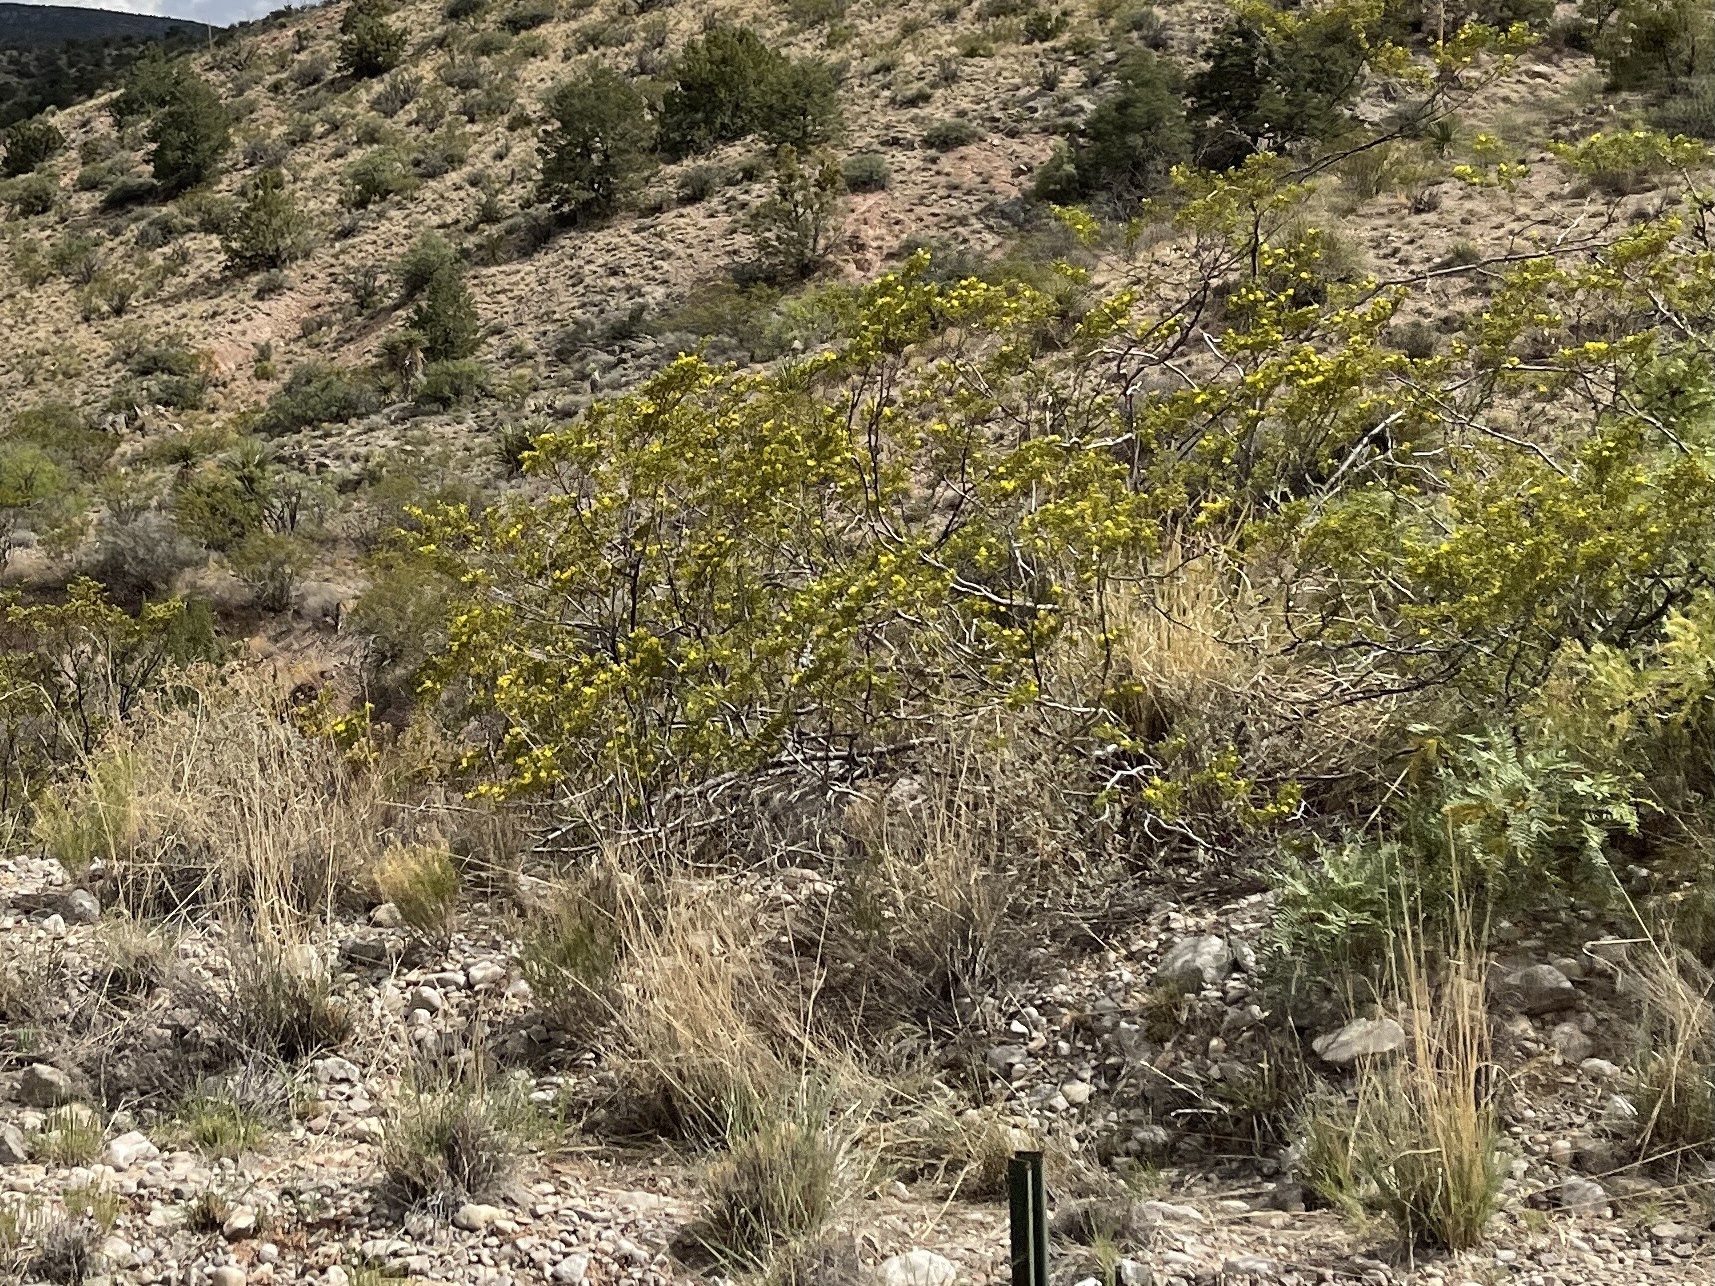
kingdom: Plantae
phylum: Tracheophyta
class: Magnoliopsida
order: Zygophyllales
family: Zygophyllaceae
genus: Larrea
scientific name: Larrea tridentata
